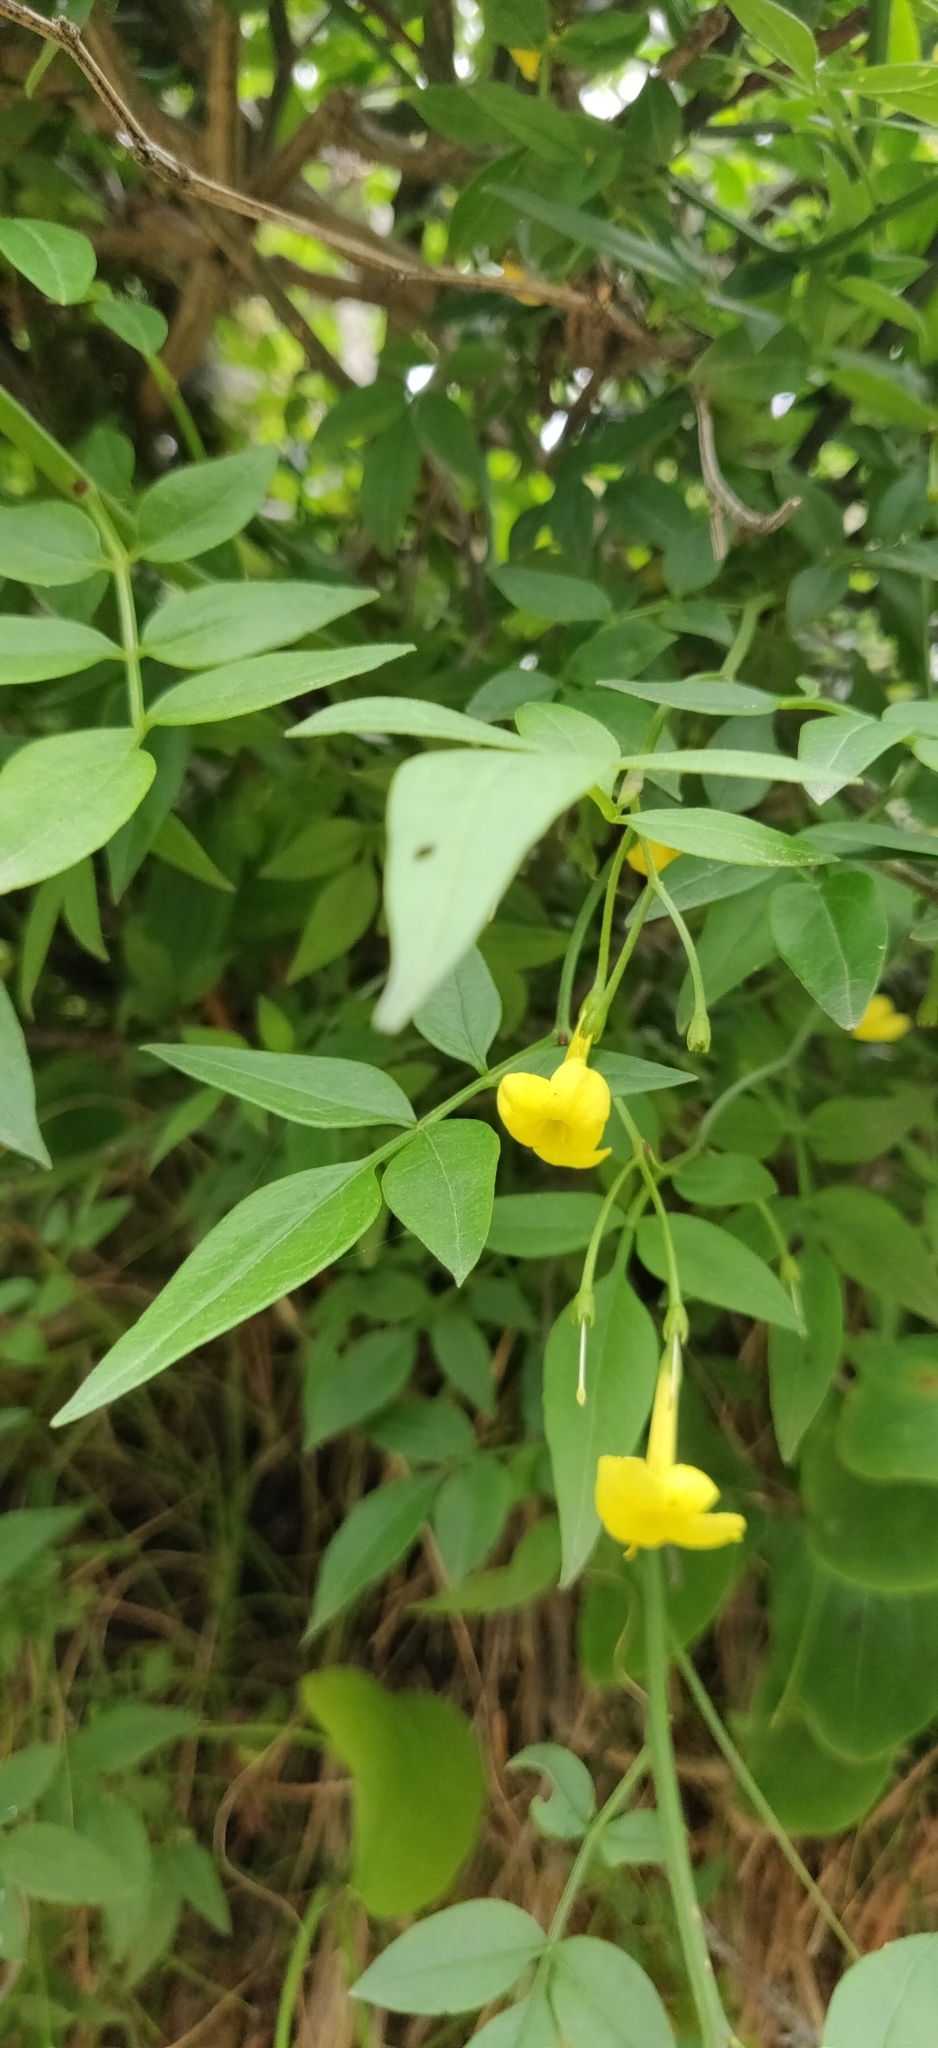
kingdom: Plantae
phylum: Tracheophyta
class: Magnoliopsida
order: Lamiales
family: Oleaceae
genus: Chrysojasminum
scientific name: Chrysojasminum humile
